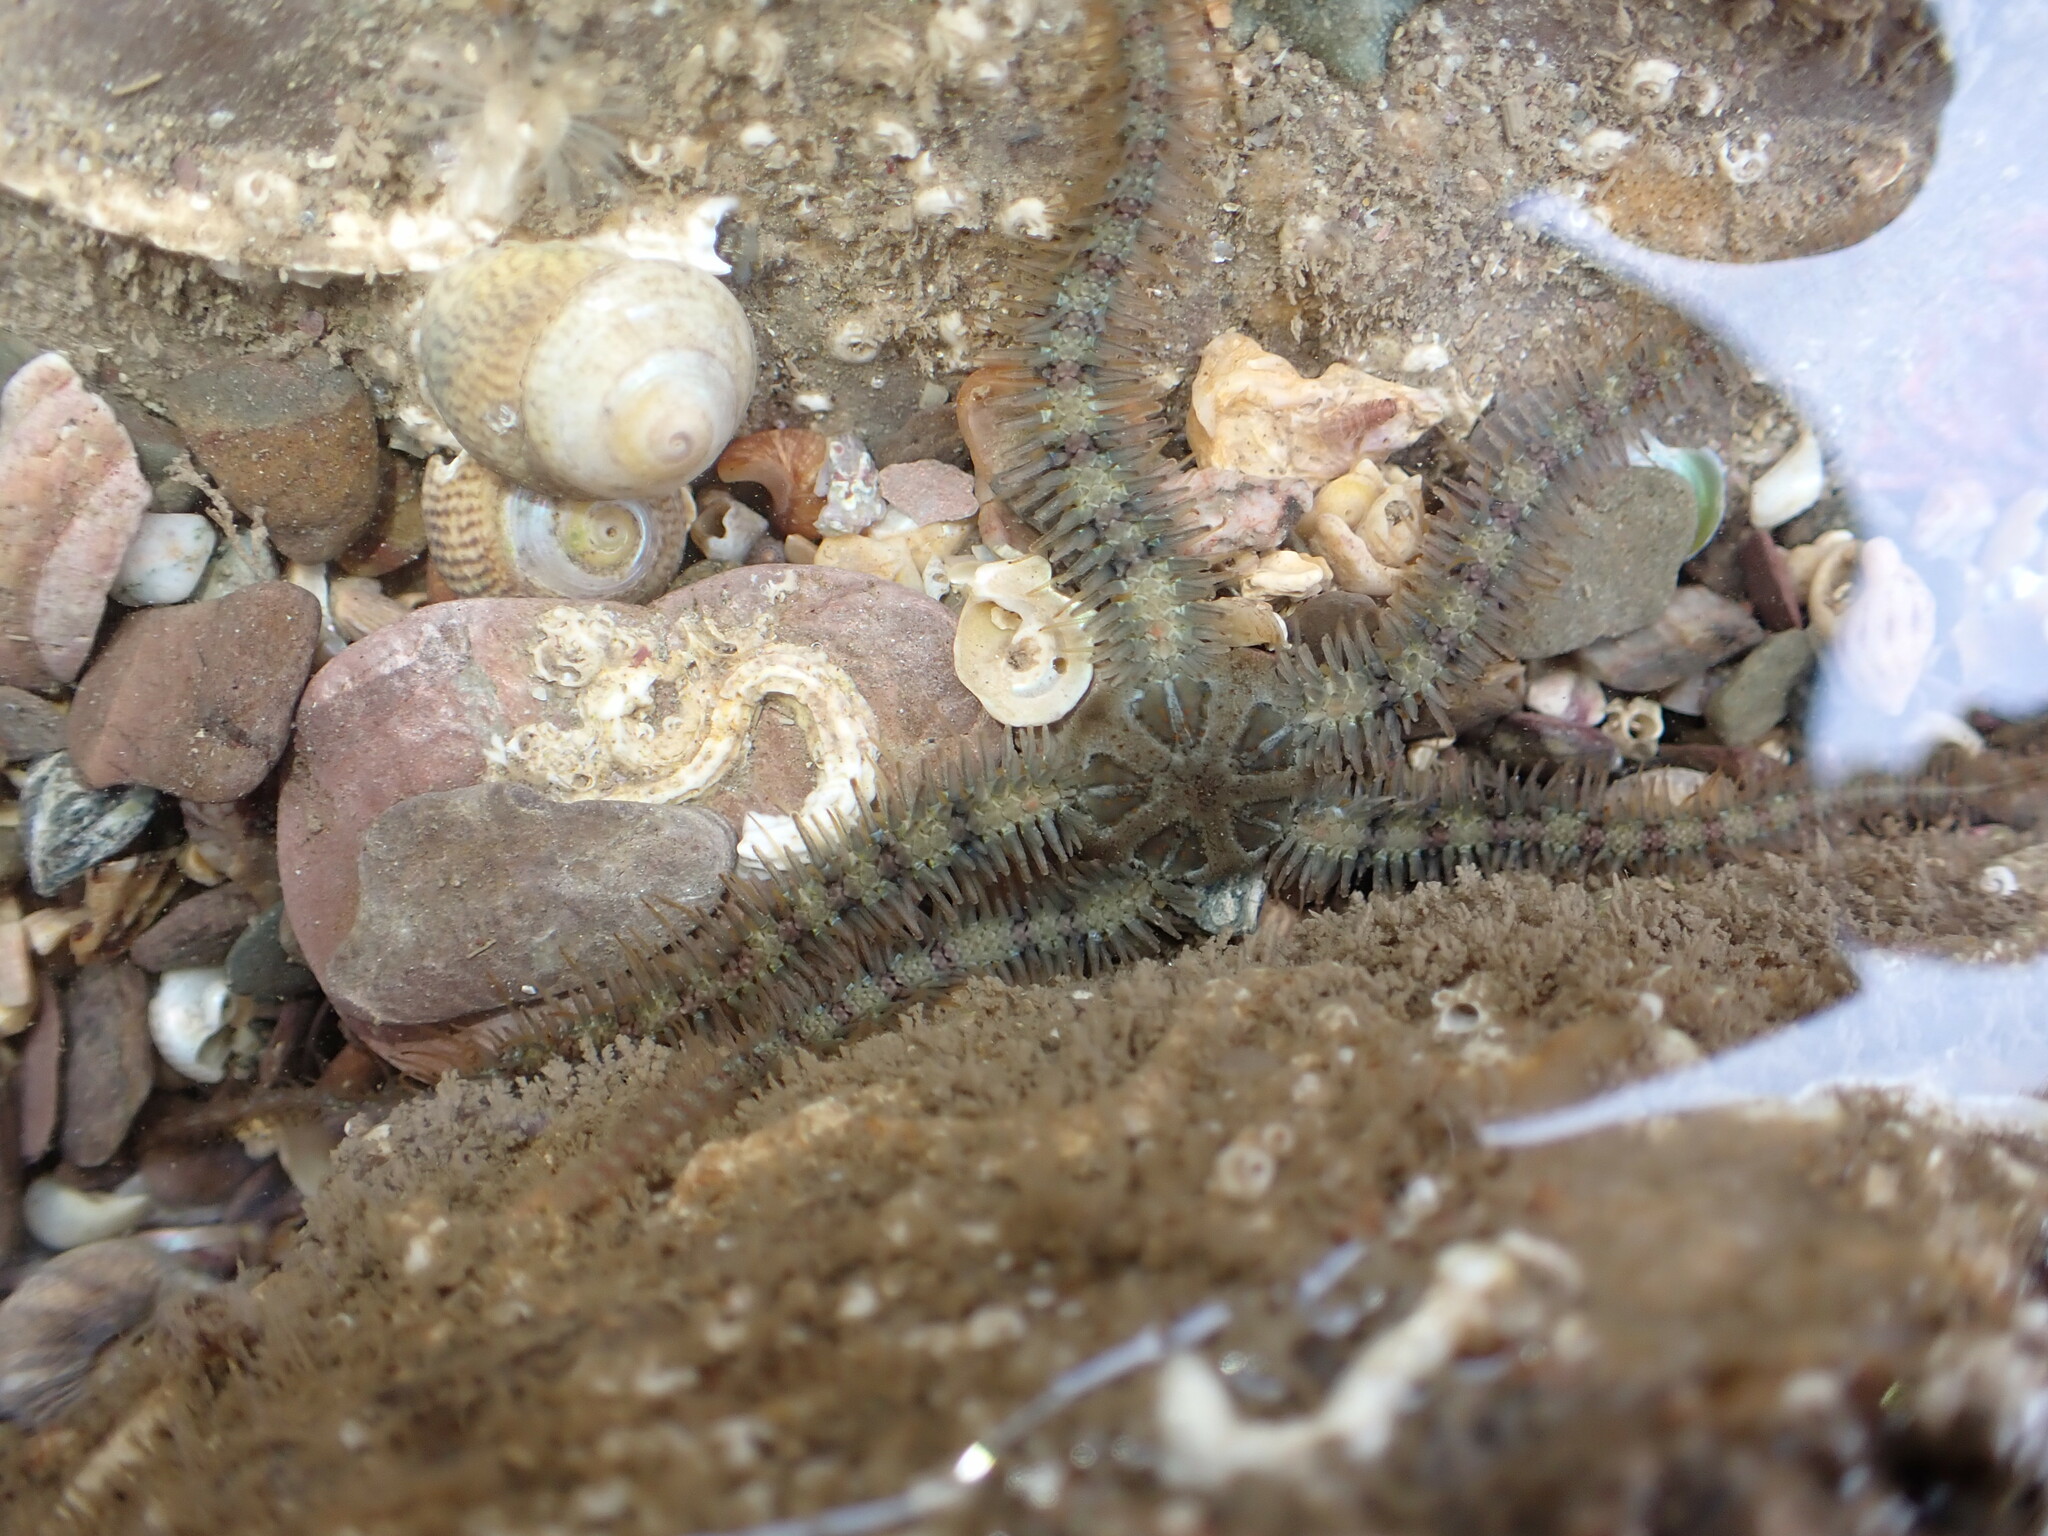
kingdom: Animalia
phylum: Echinodermata
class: Ophiuroidea
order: Amphilepidida
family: Ophiotrichidae
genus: Ophiothrix
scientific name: Ophiothrix fragilis
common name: Common brittlestar
